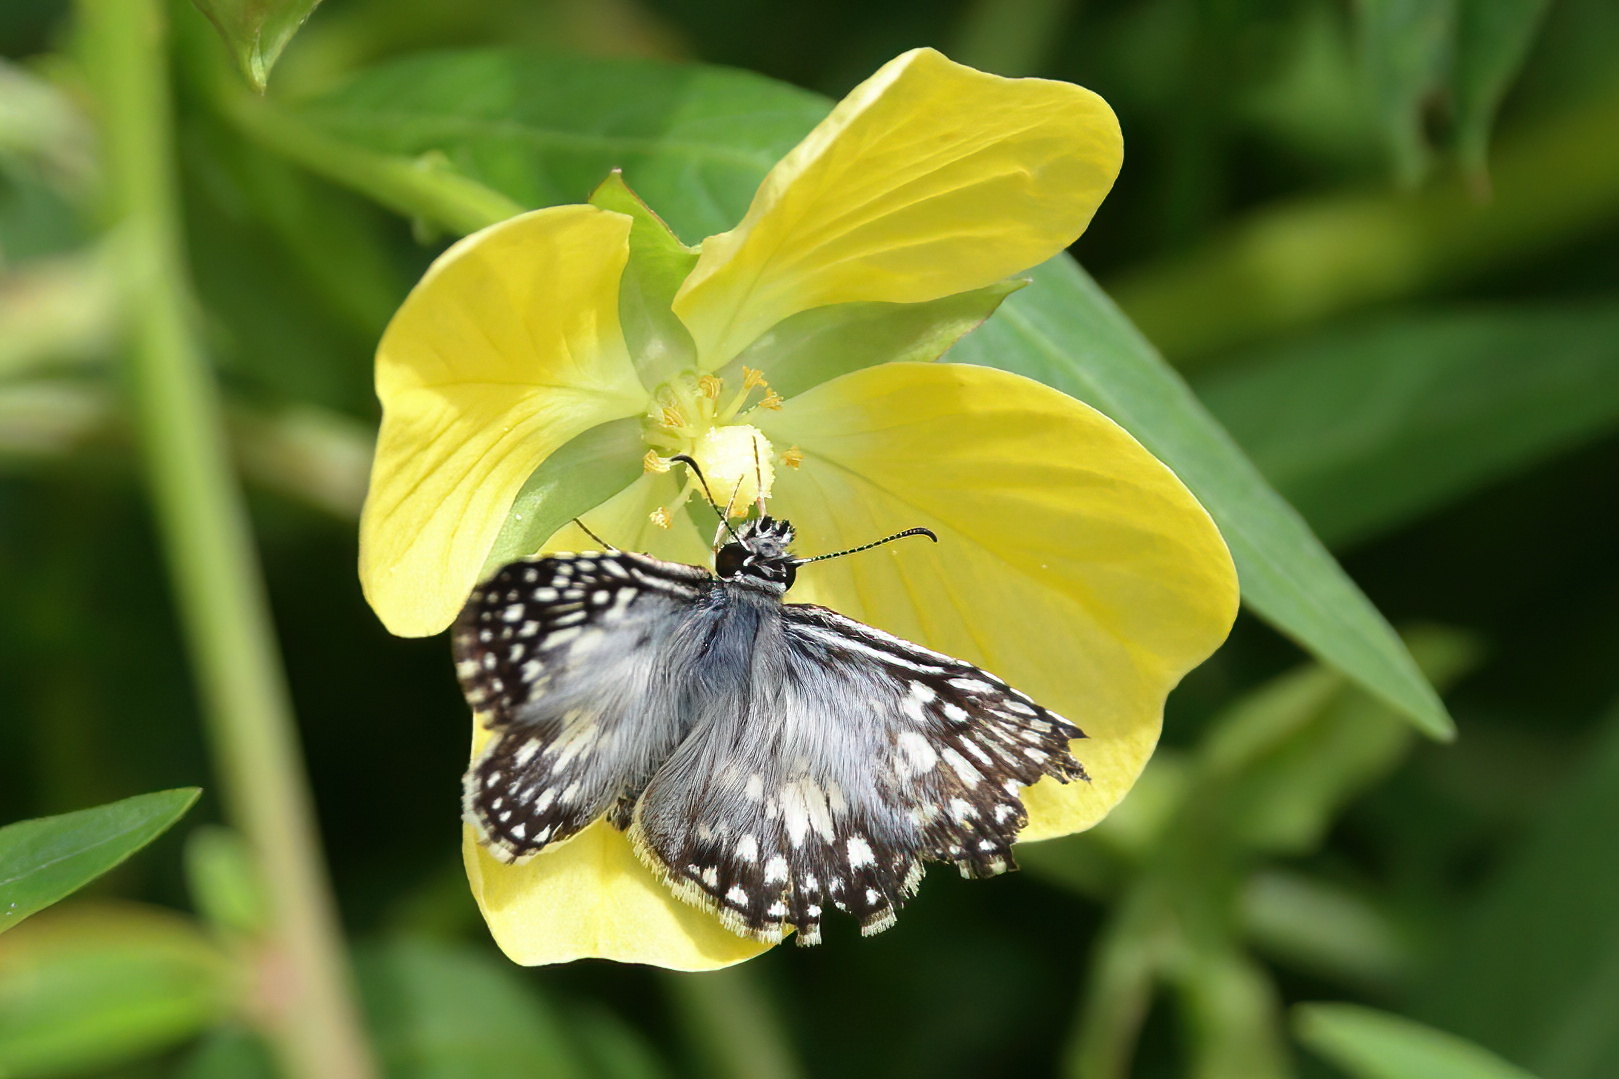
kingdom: Animalia
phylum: Arthropoda
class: Insecta
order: Lepidoptera
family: Hesperiidae
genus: Pyrgus
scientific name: Pyrgus oileus
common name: Tropical checkered-skipper
